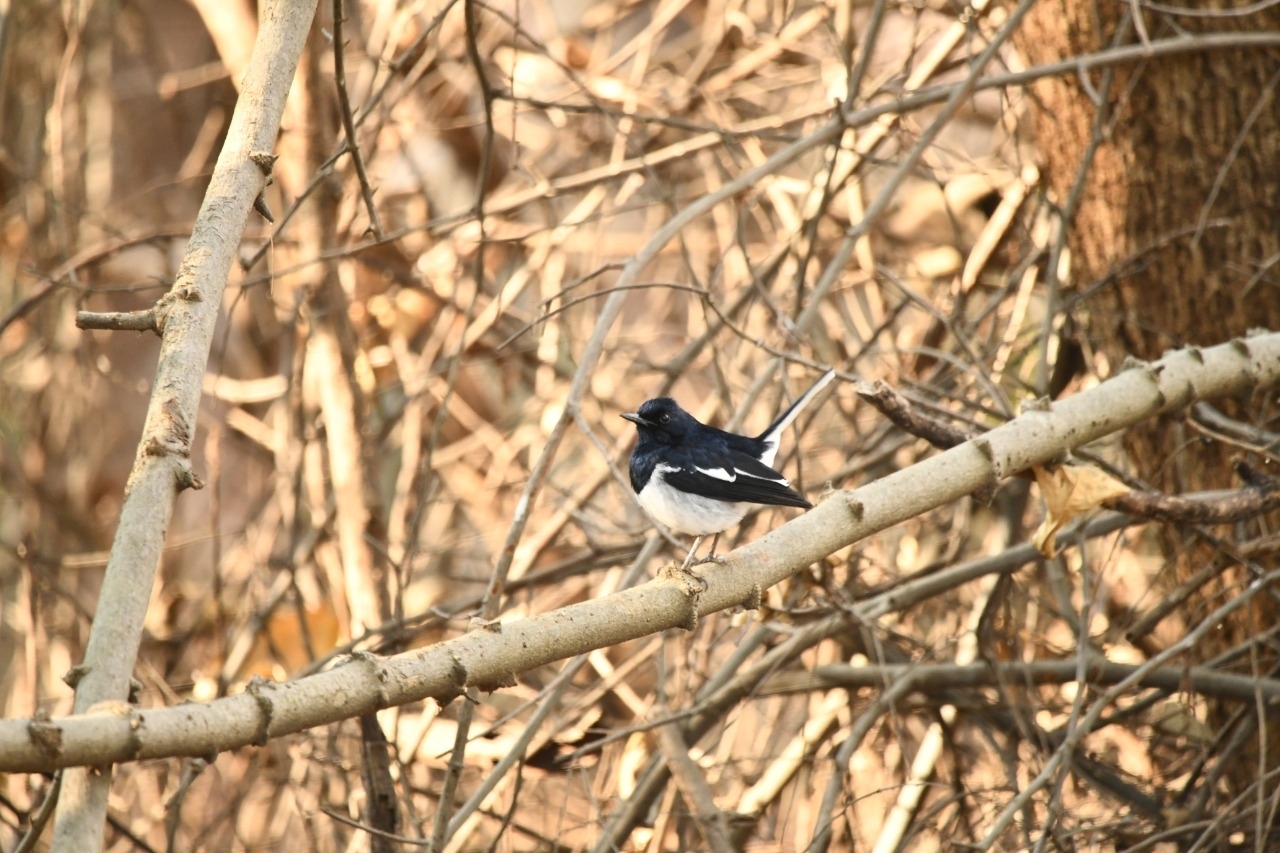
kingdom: Animalia
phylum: Chordata
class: Aves
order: Passeriformes
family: Muscicapidae
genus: Copsychus
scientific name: Copsychus saularis
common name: Oriental magpie-robin
